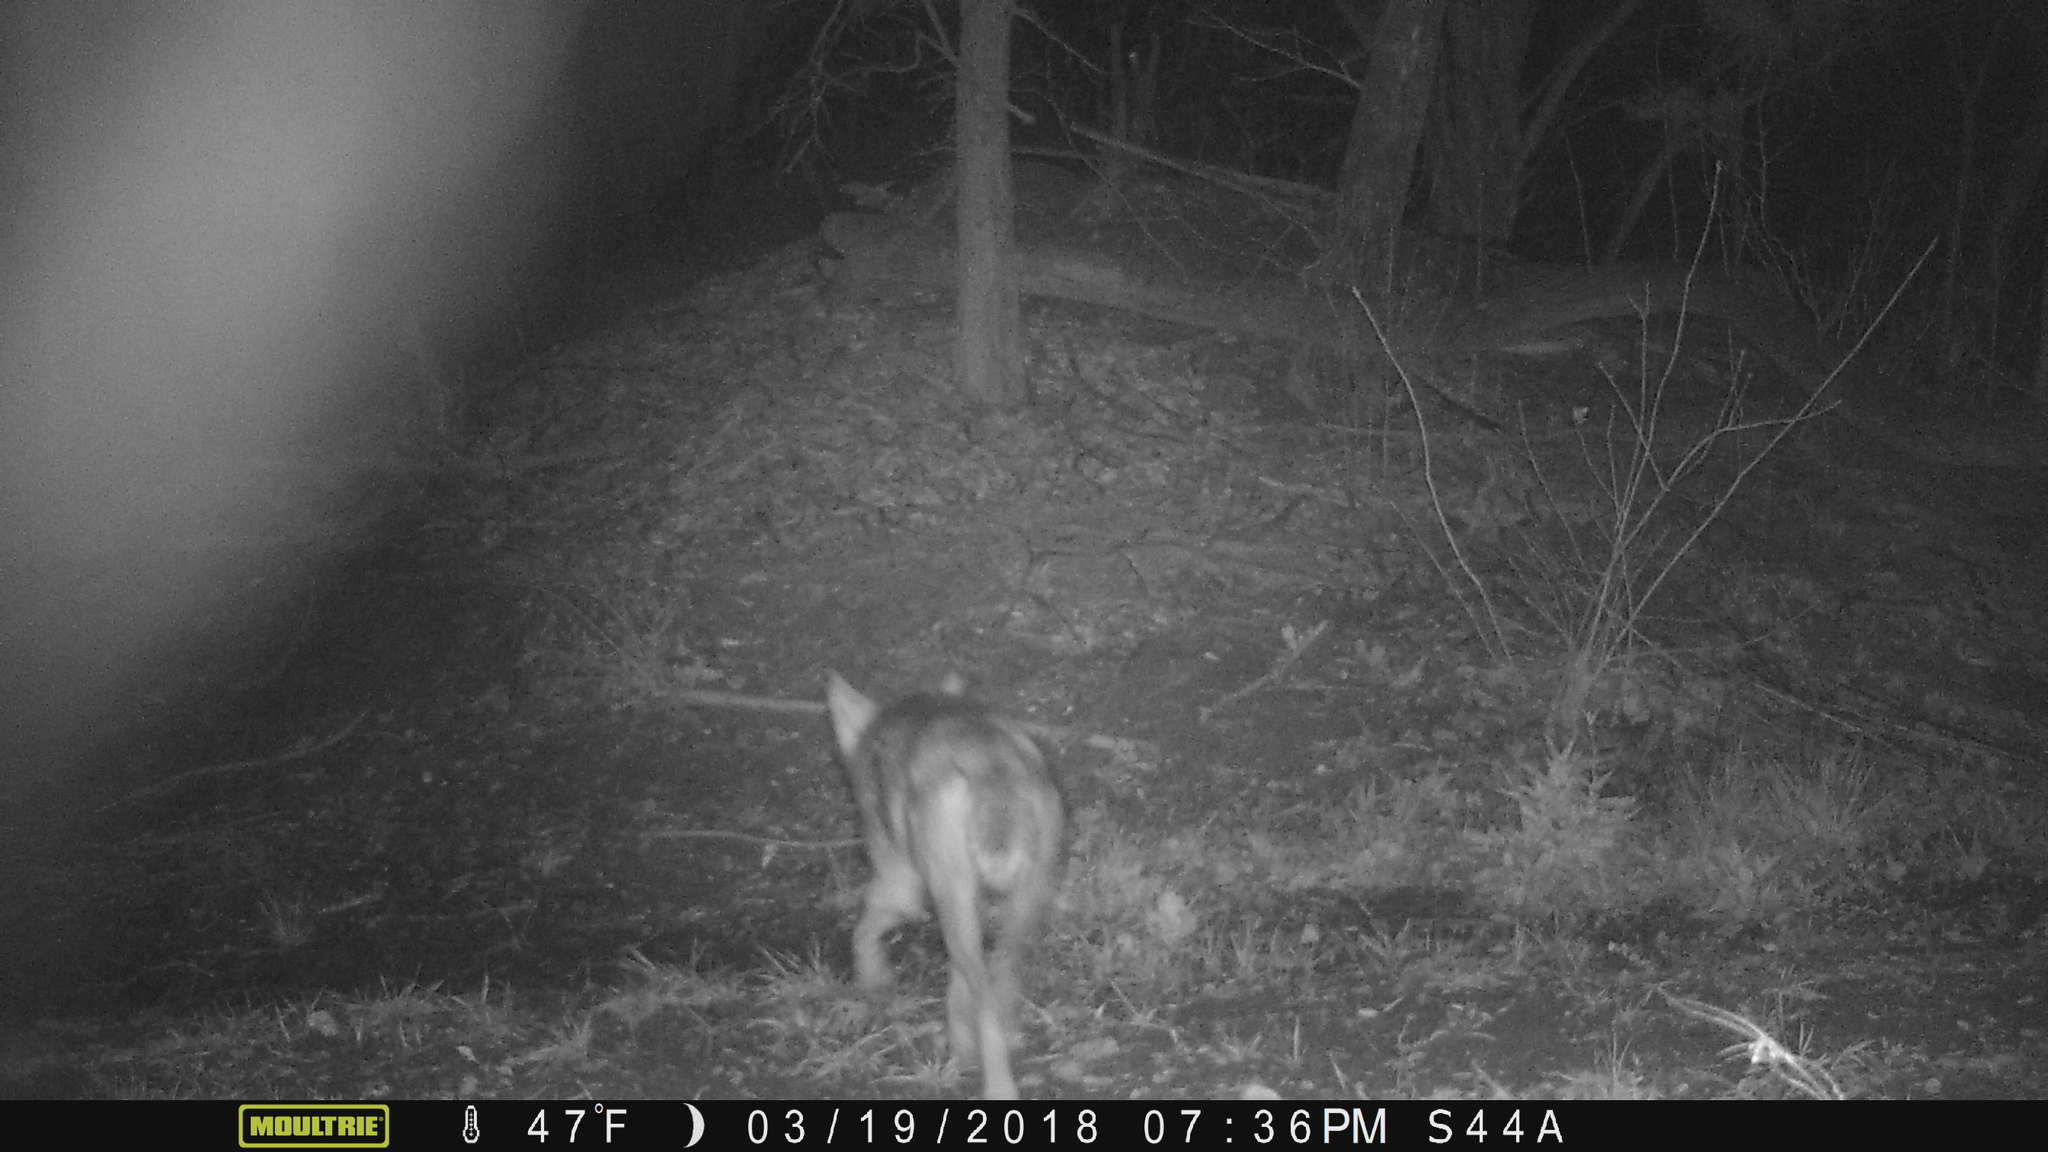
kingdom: Animalia
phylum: Chordata
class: Mammalia
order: Carnivora
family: Canidae
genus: Canis
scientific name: Canis latrans
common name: Coyote
